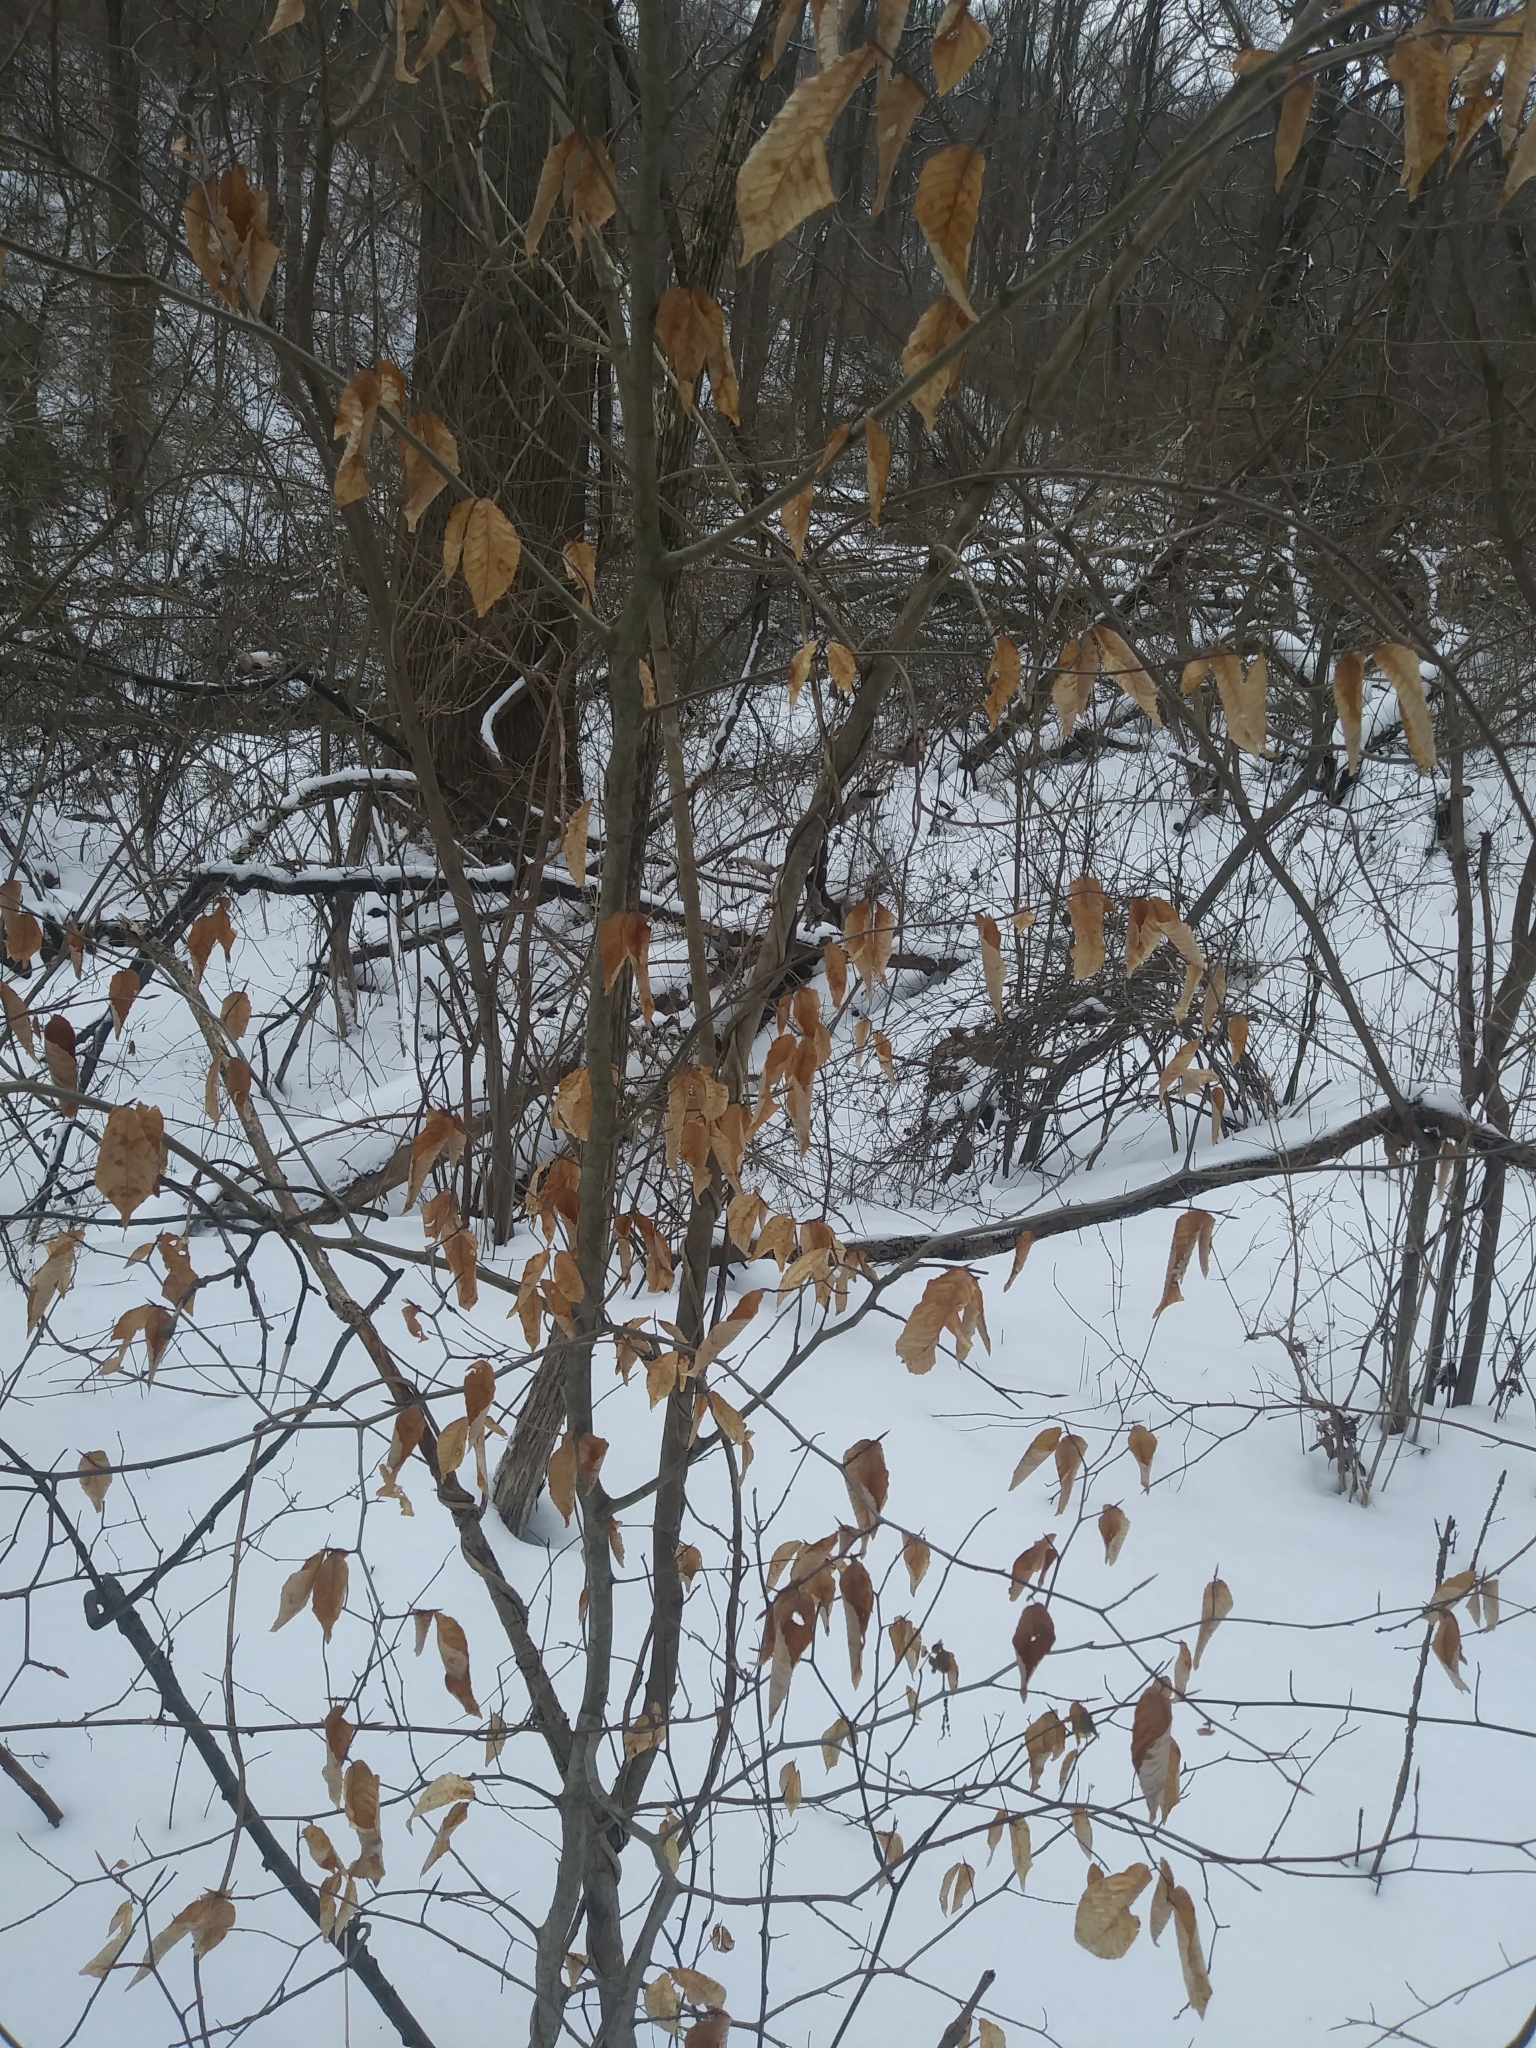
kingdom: Plantae
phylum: Tracheophyta
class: Magnoliopsida
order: Fagales
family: Fagaceae
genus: Fagus
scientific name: Fagus grandifolia
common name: American beech
